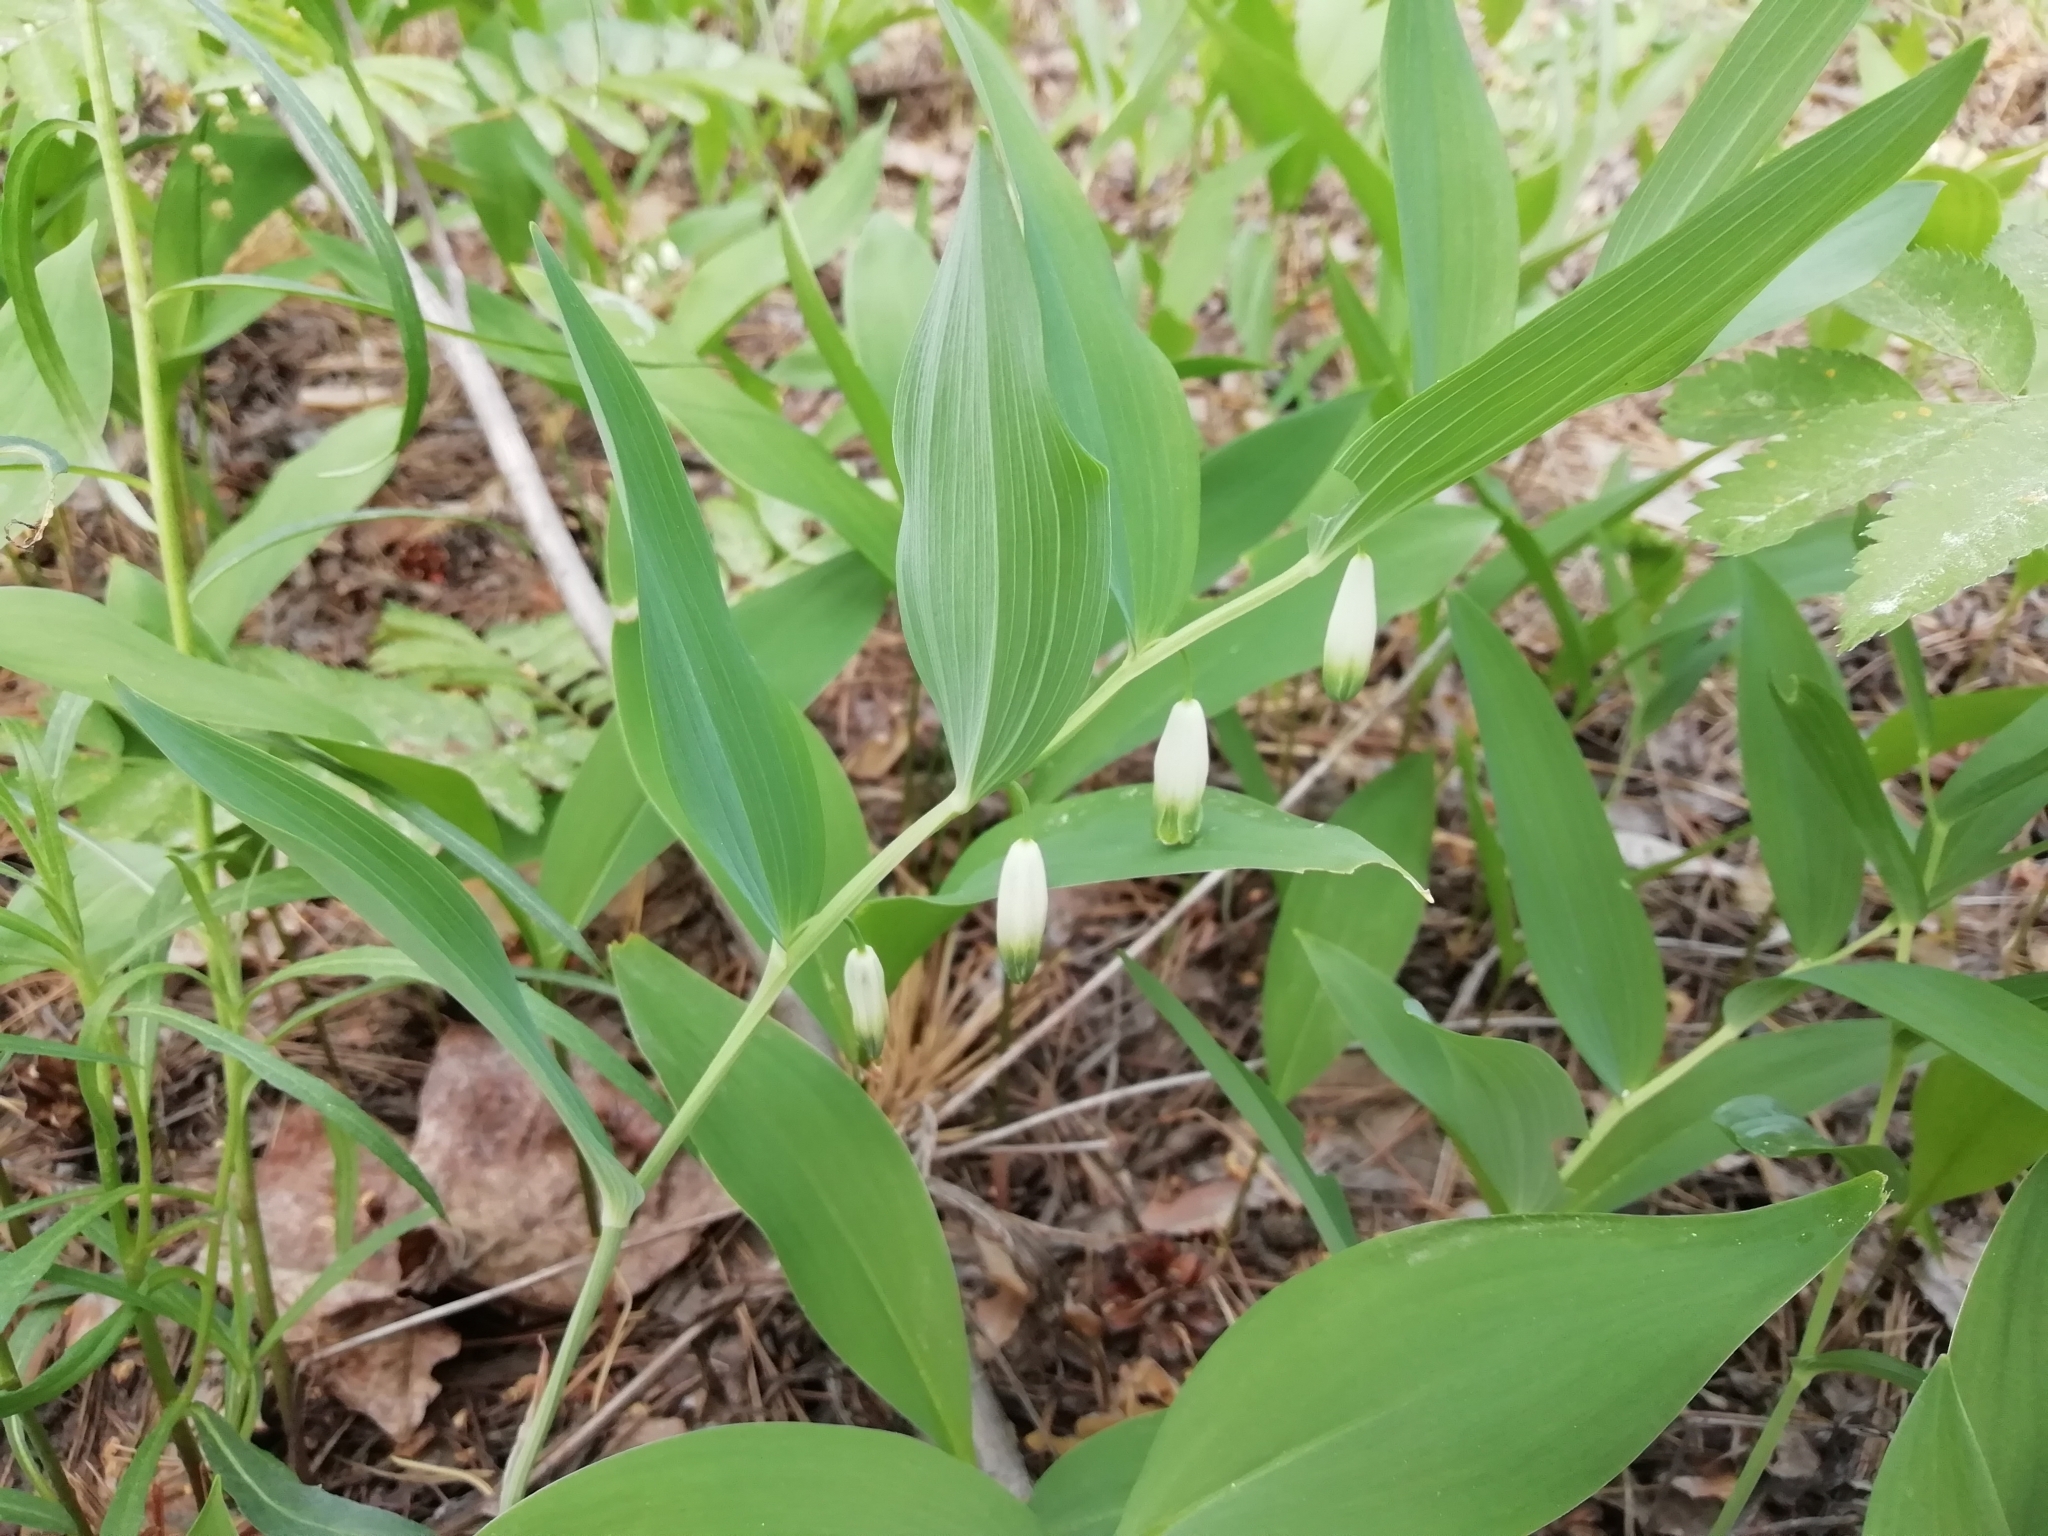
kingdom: Plantae
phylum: Tracheophyta
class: Liliopsida
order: Asparagales
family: Asparagaceae
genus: Polygonatum
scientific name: Polygonatum odoratum
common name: Angular solomon's-seal
